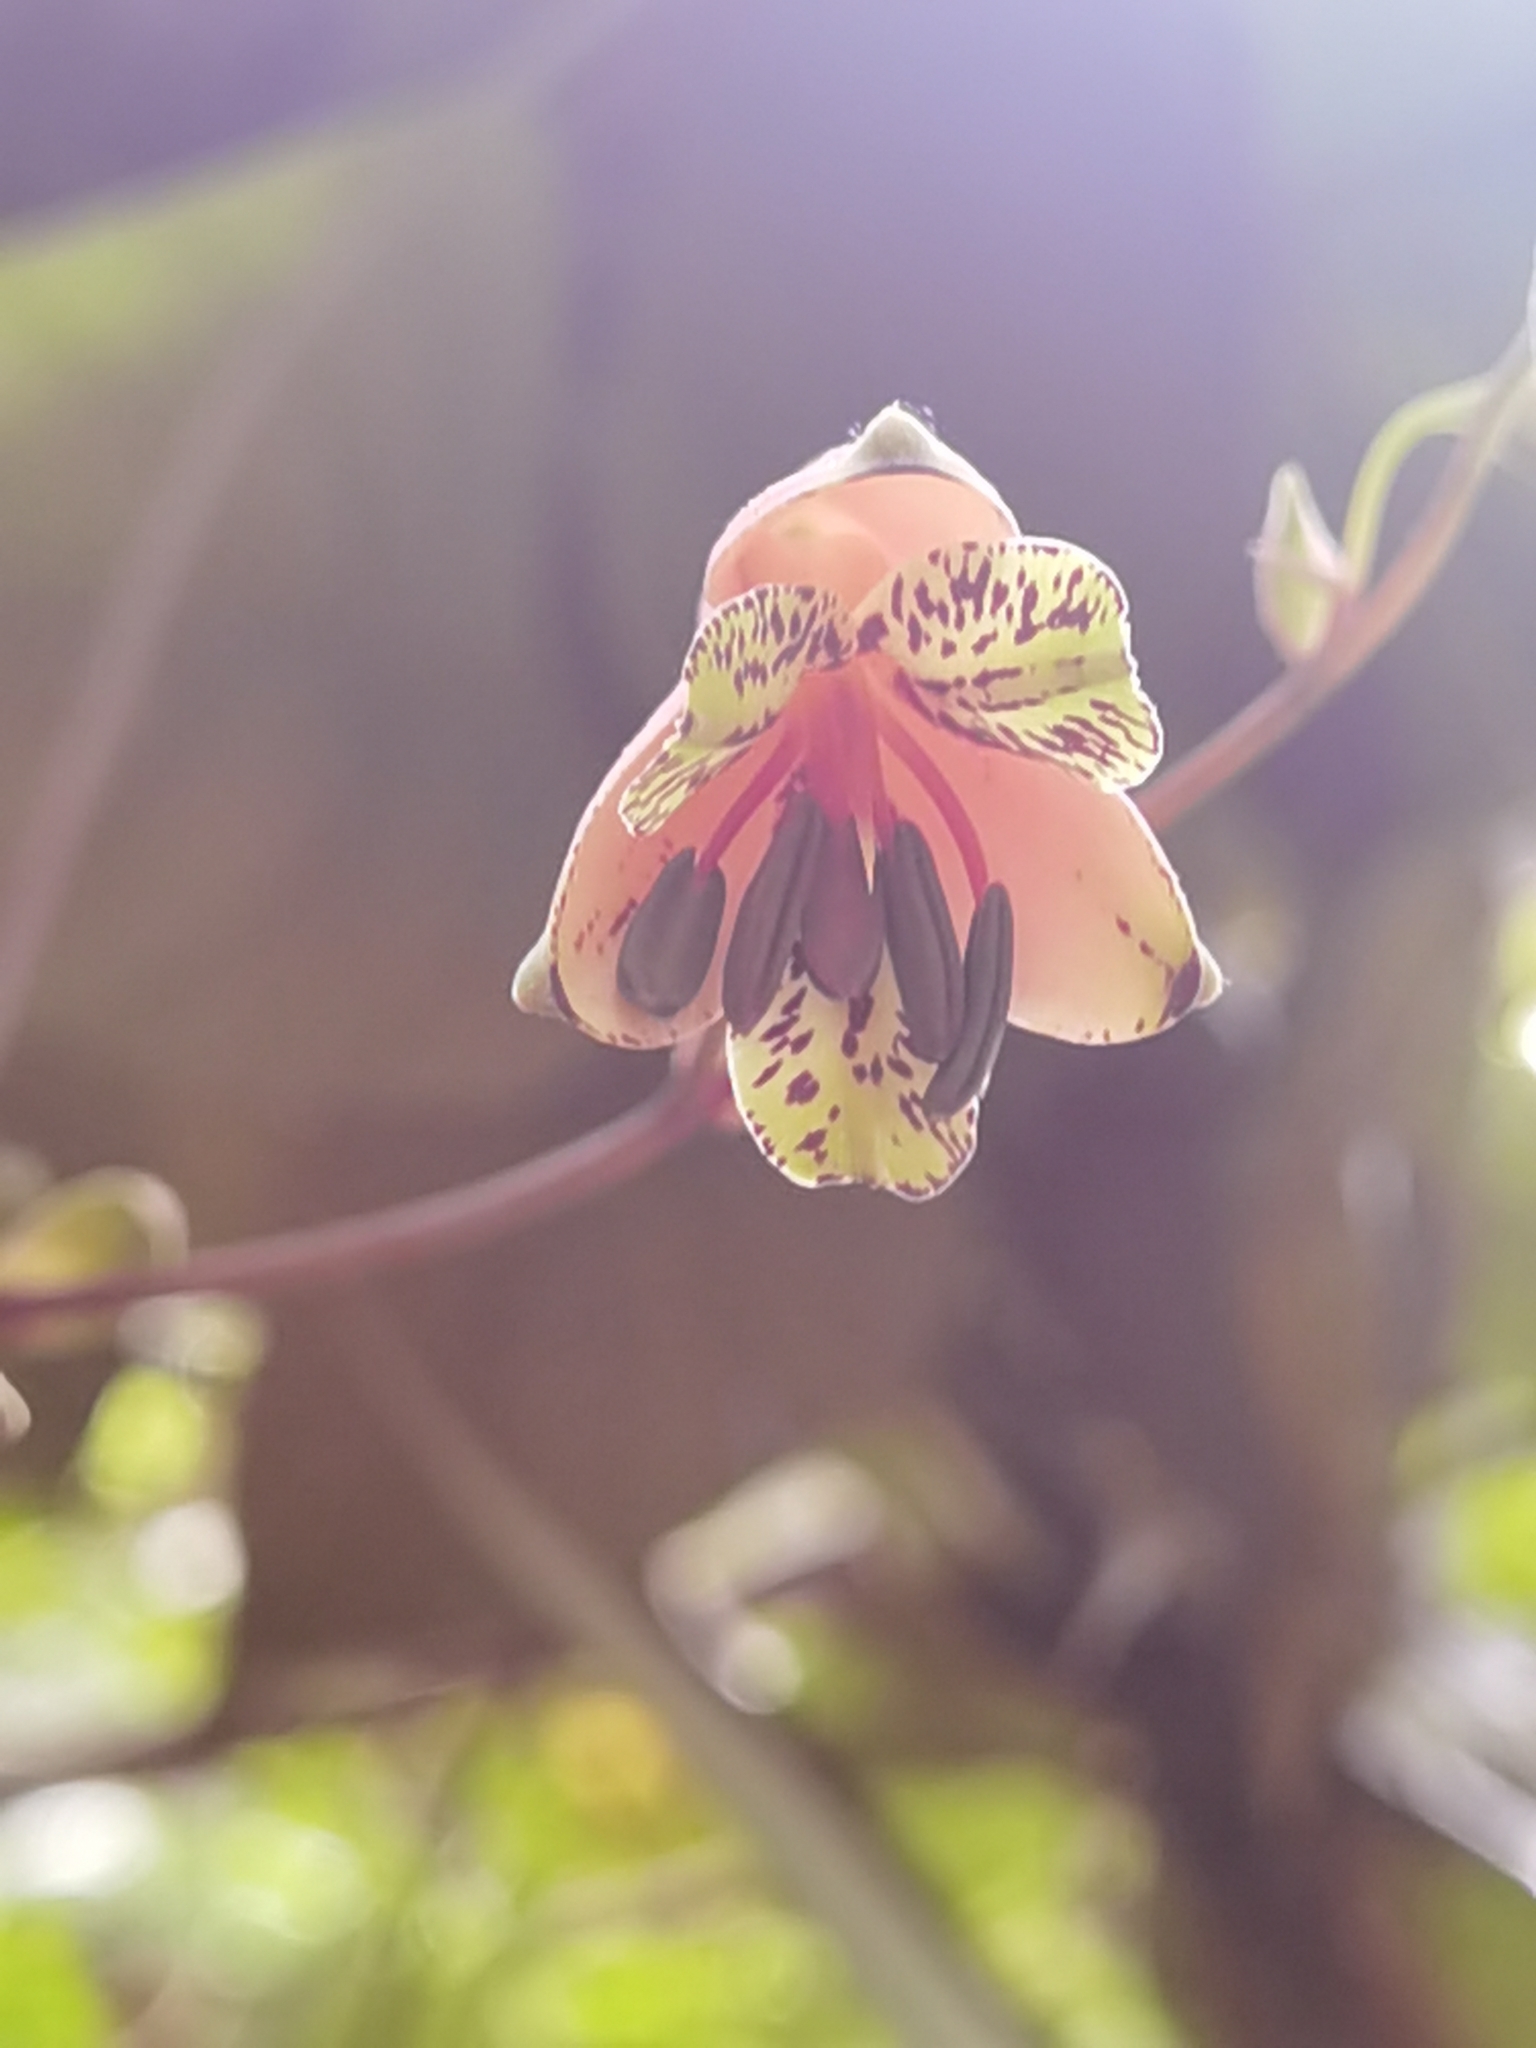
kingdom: Plantae
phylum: Tracheophyta
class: Liliopsida
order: Liliales
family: Alstroemeriaceae
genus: Bomarea
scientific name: Bomarea edulis
